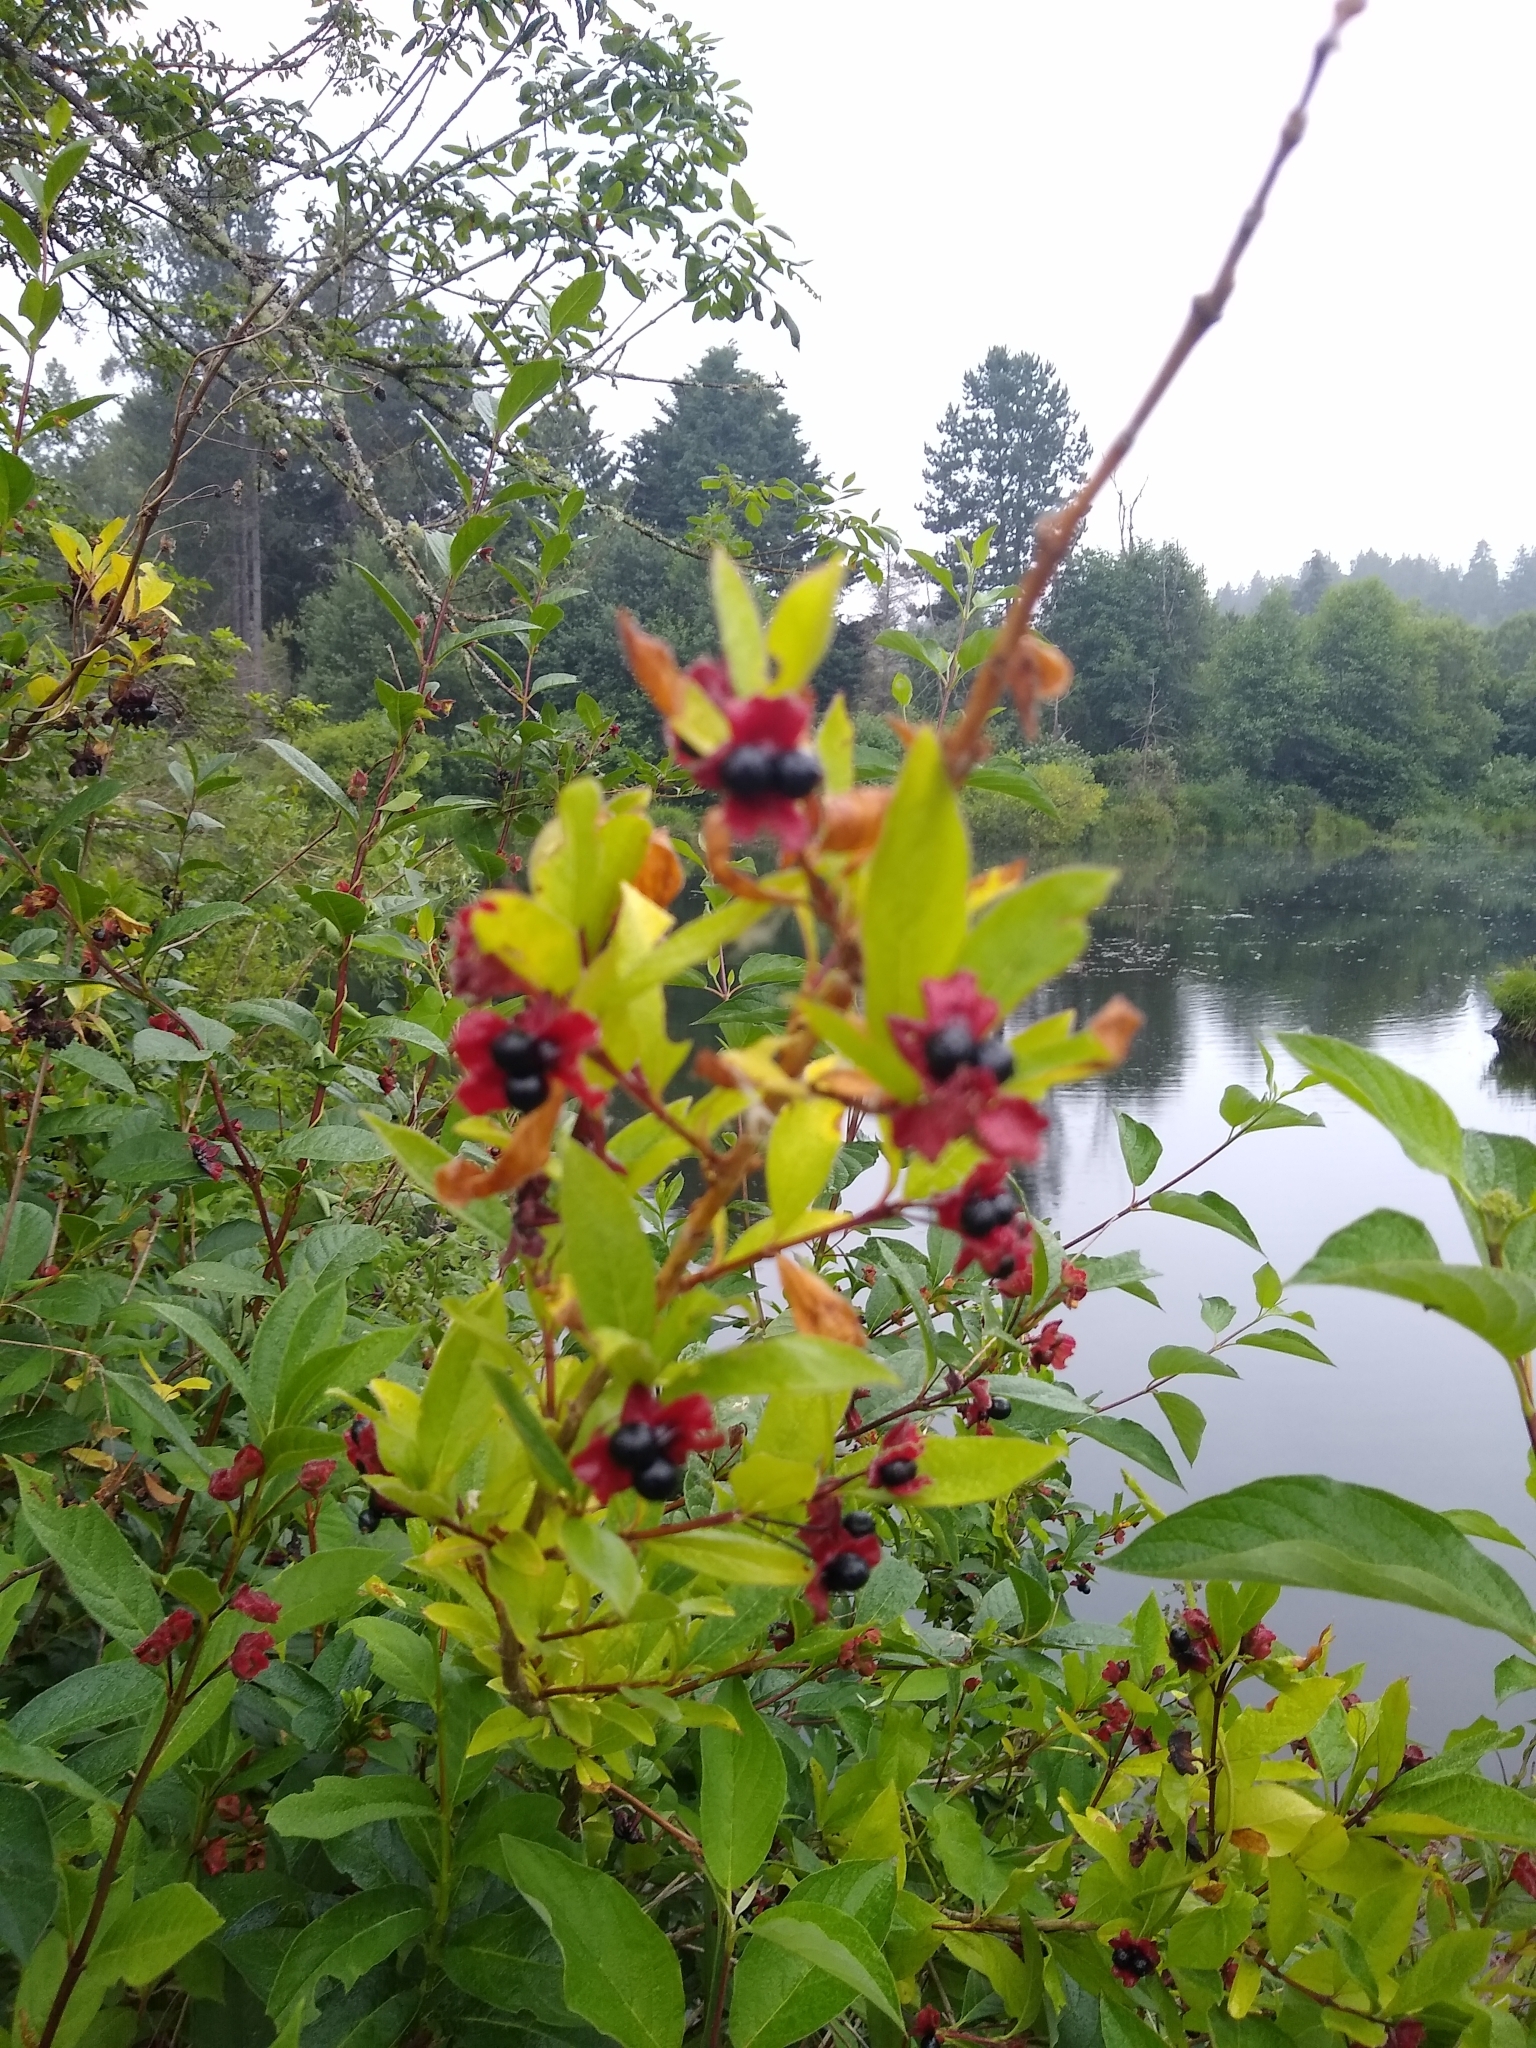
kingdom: Plantae
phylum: Tracheophyta
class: Magnoliopsida
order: Dipsacales
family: Caprifoliaceae
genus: Lonicera
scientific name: Lonicera involucrata
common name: Californian honeysuckle
